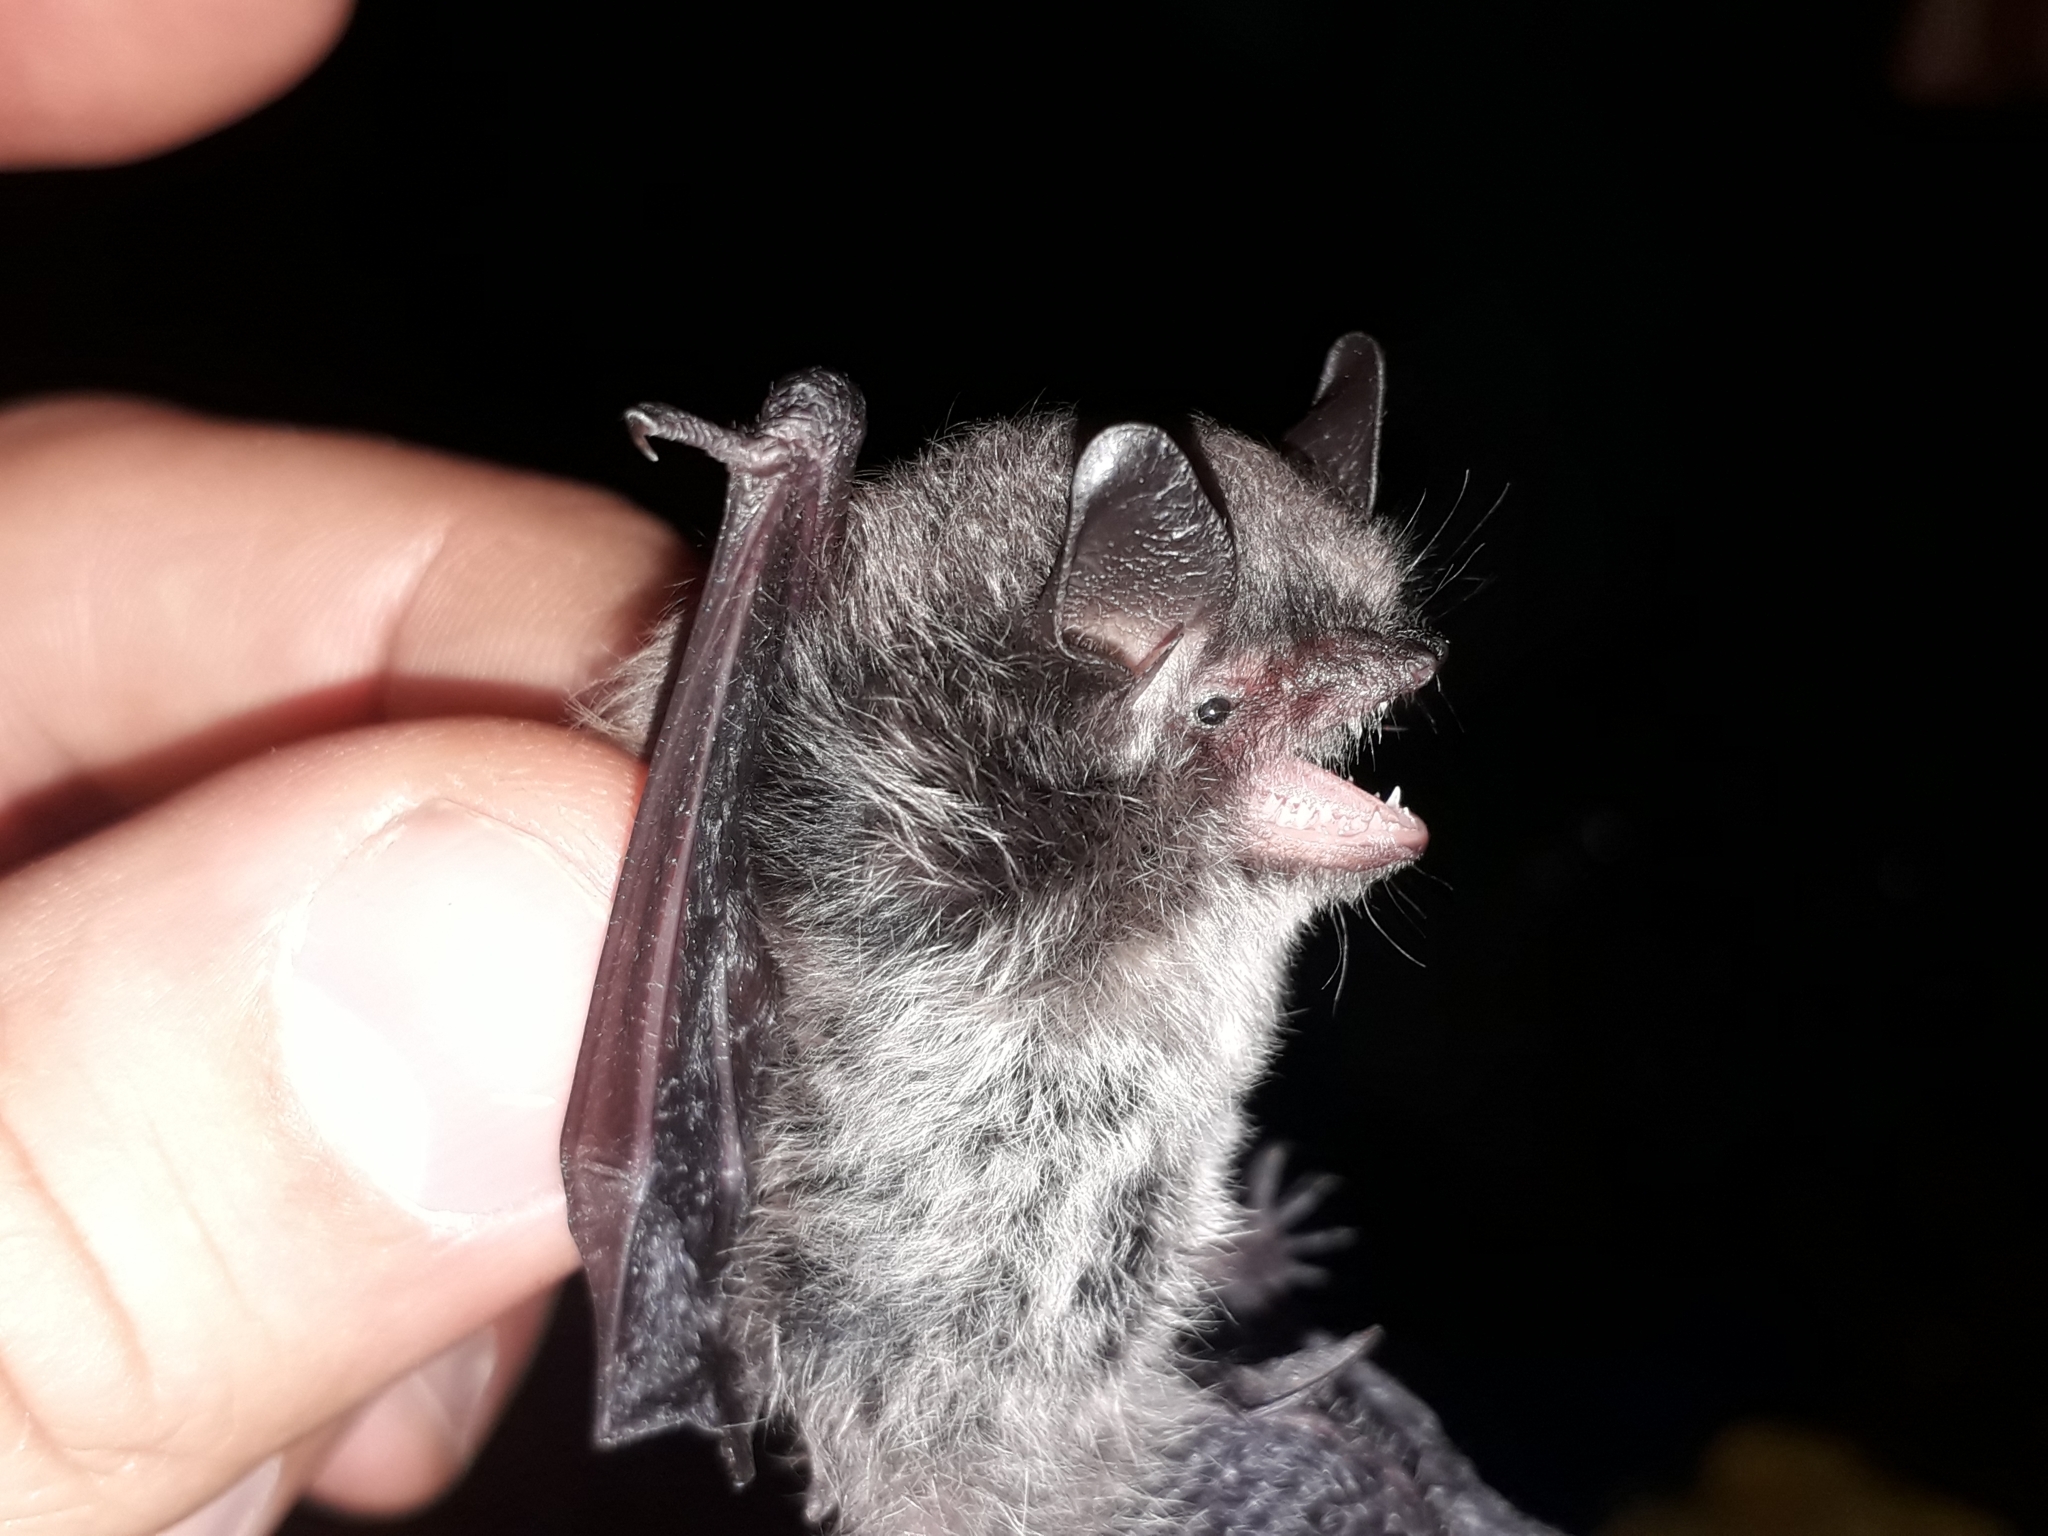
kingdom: Animalia
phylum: Chordata
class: Mammalia
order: Chiroptera
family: Vespertilionidae
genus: Myotis
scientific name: Myotis alcathoe
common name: Alcathoe myotis
